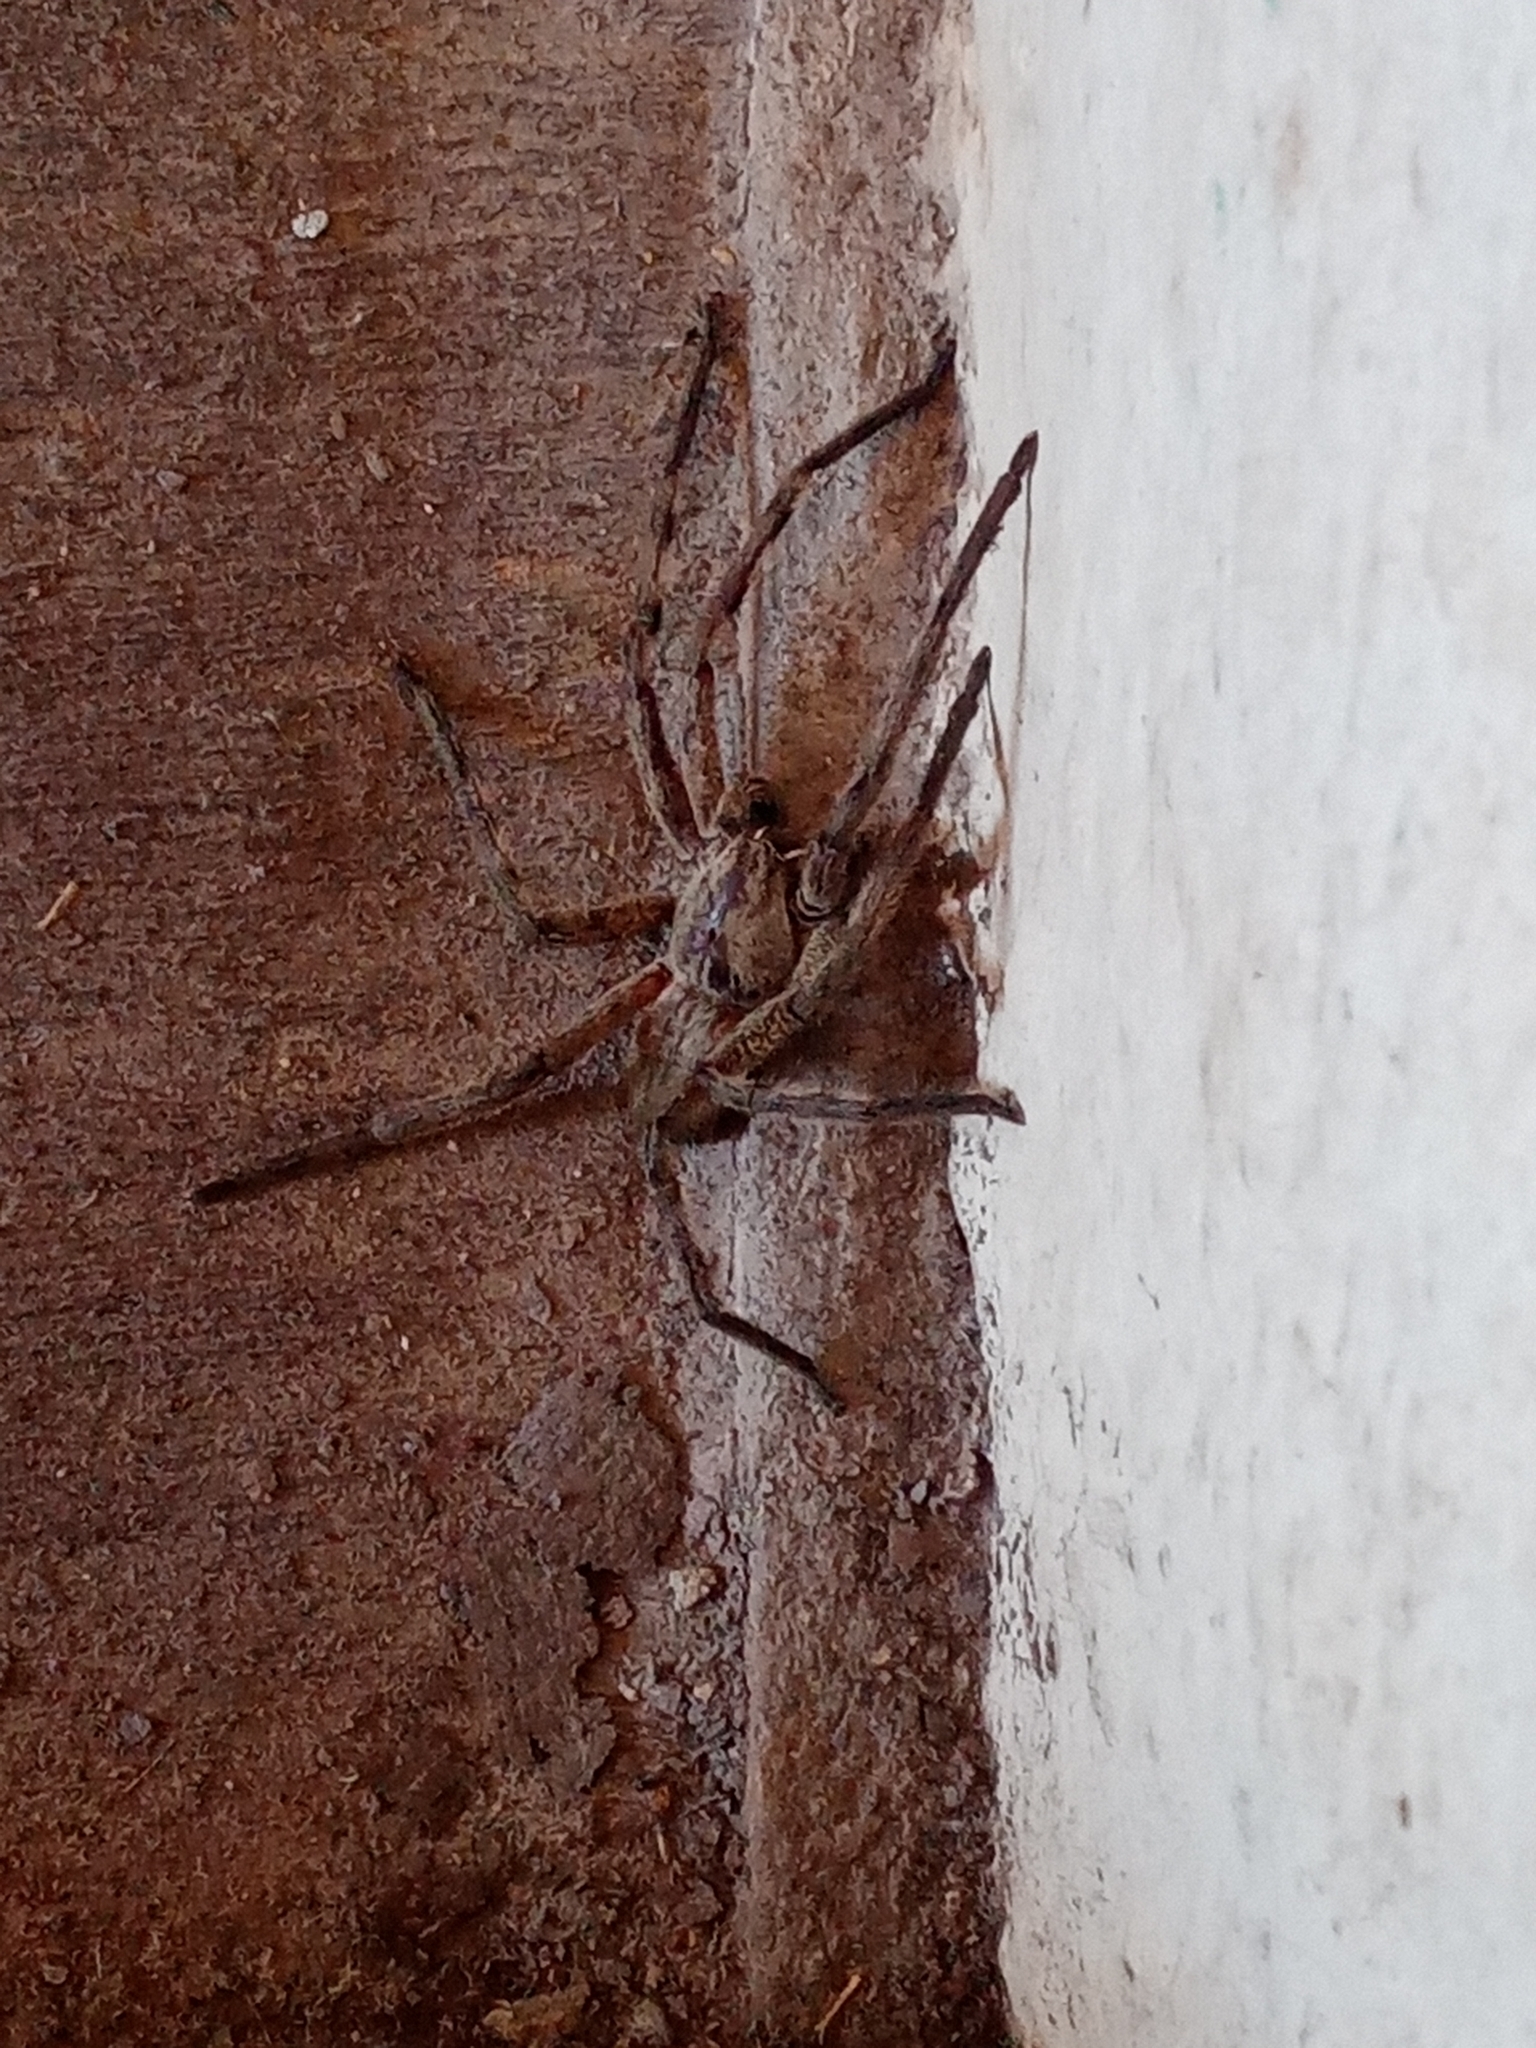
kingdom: Animalia
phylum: Arthropoda
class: Arachnida
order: Araneae
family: Sparassidae
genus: Palystes
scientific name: Palystes superciliosus
